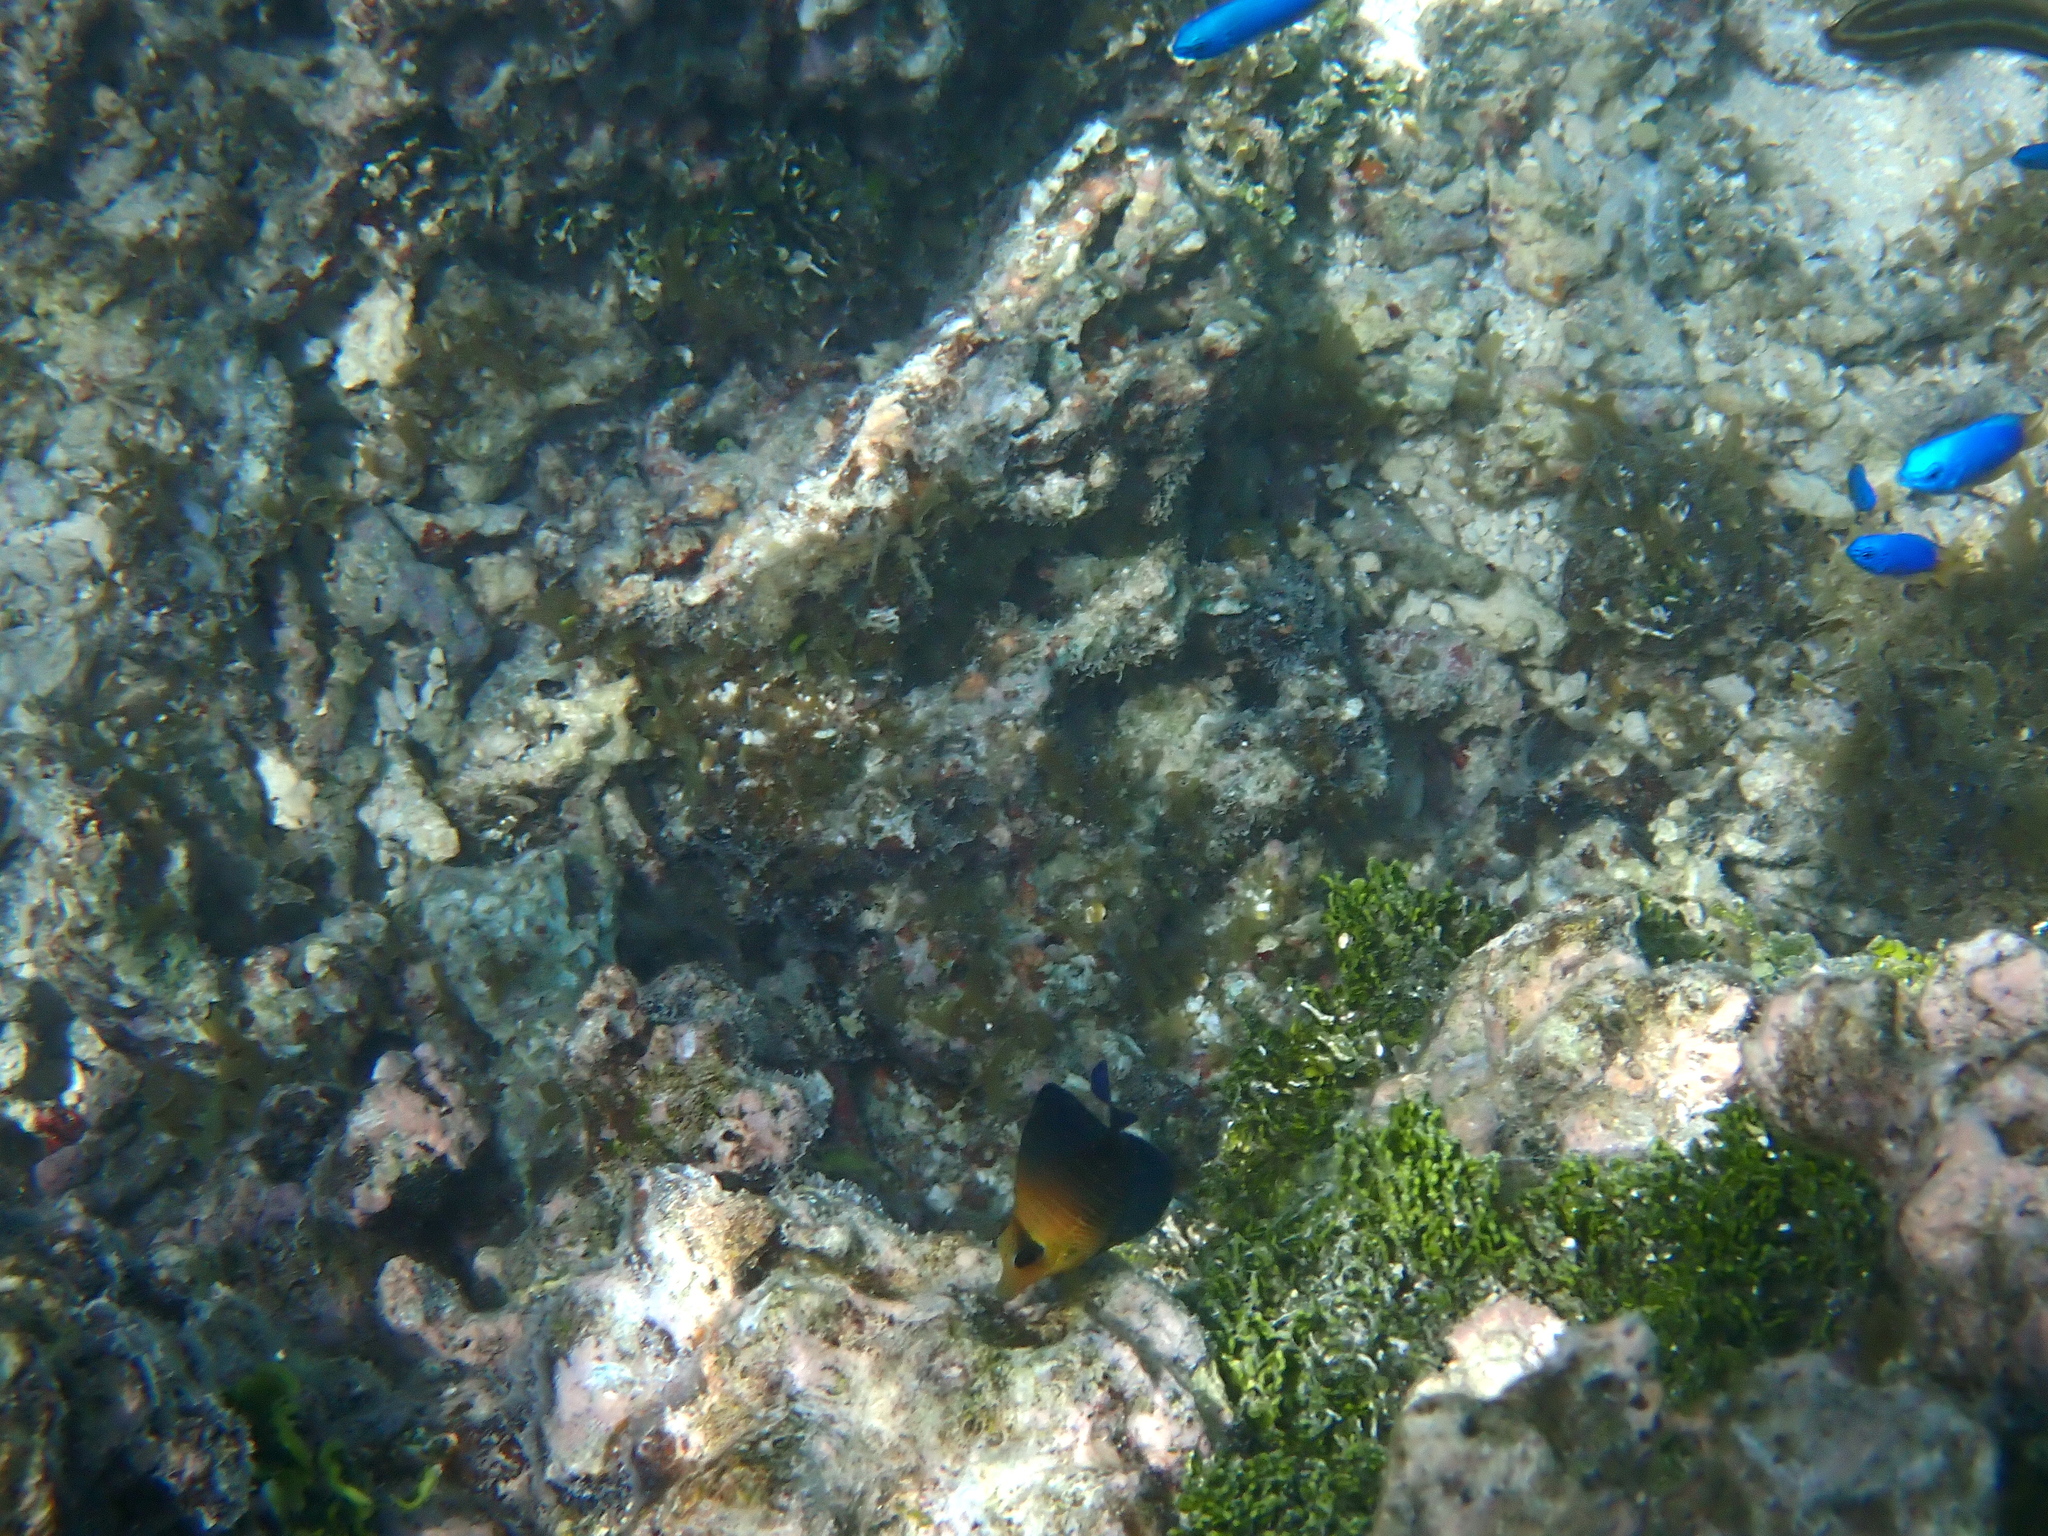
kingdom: Animalia
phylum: Chordata
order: Perciformes
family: Acanthuridae
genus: Zebrasoma
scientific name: Zebrasoma scopas
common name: Twotone tang
